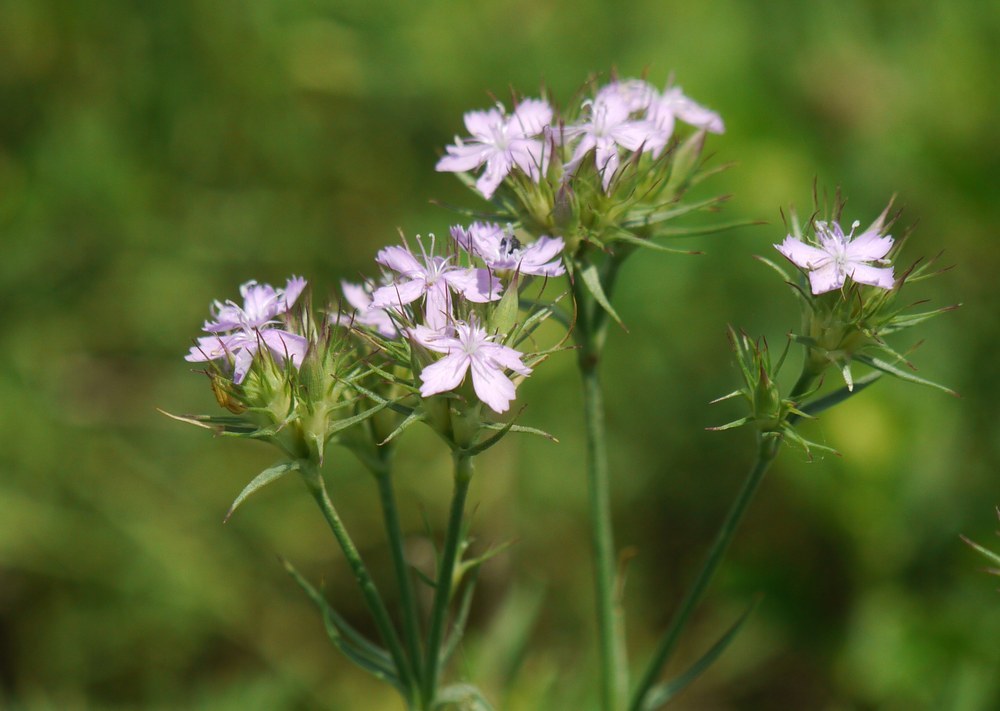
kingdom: Plantae
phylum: Tracheophyta
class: Magnoliopsida
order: Caryophyllales
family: Caryophyllaceae
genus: Dianthus
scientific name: Dianthus pseudarmeria
